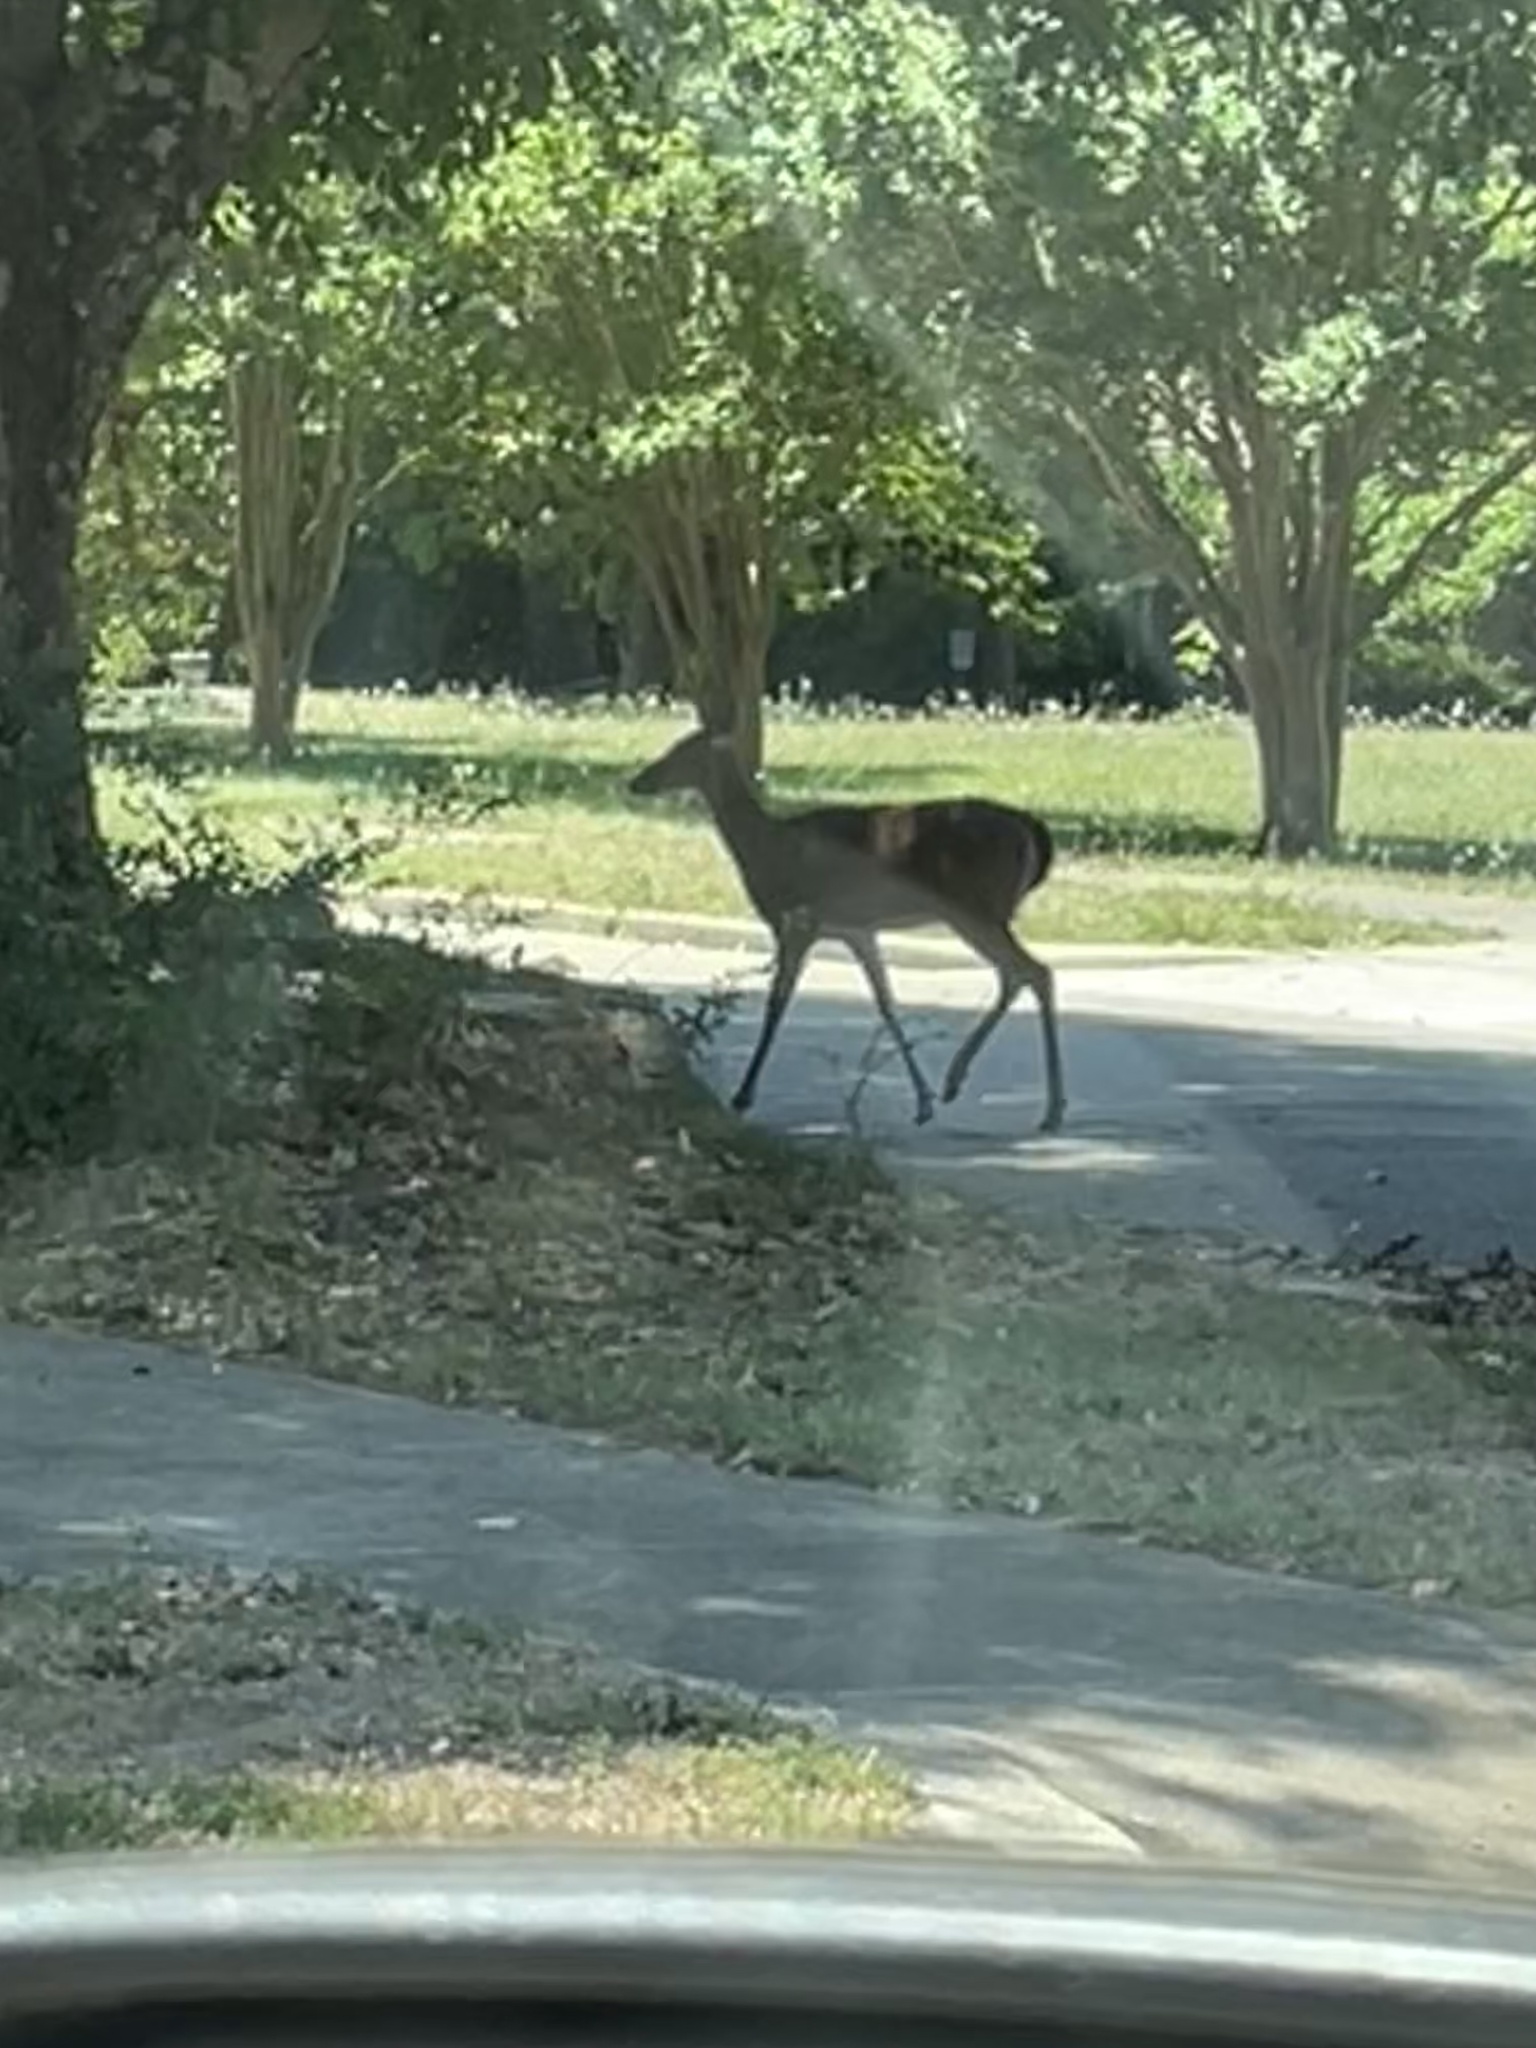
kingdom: Animalia
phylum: Chordata
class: Mammalia
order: Artiodactyla
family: Cervidae
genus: Odocoileus
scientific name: Odocoileus virginianus
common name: White-tailed deer
